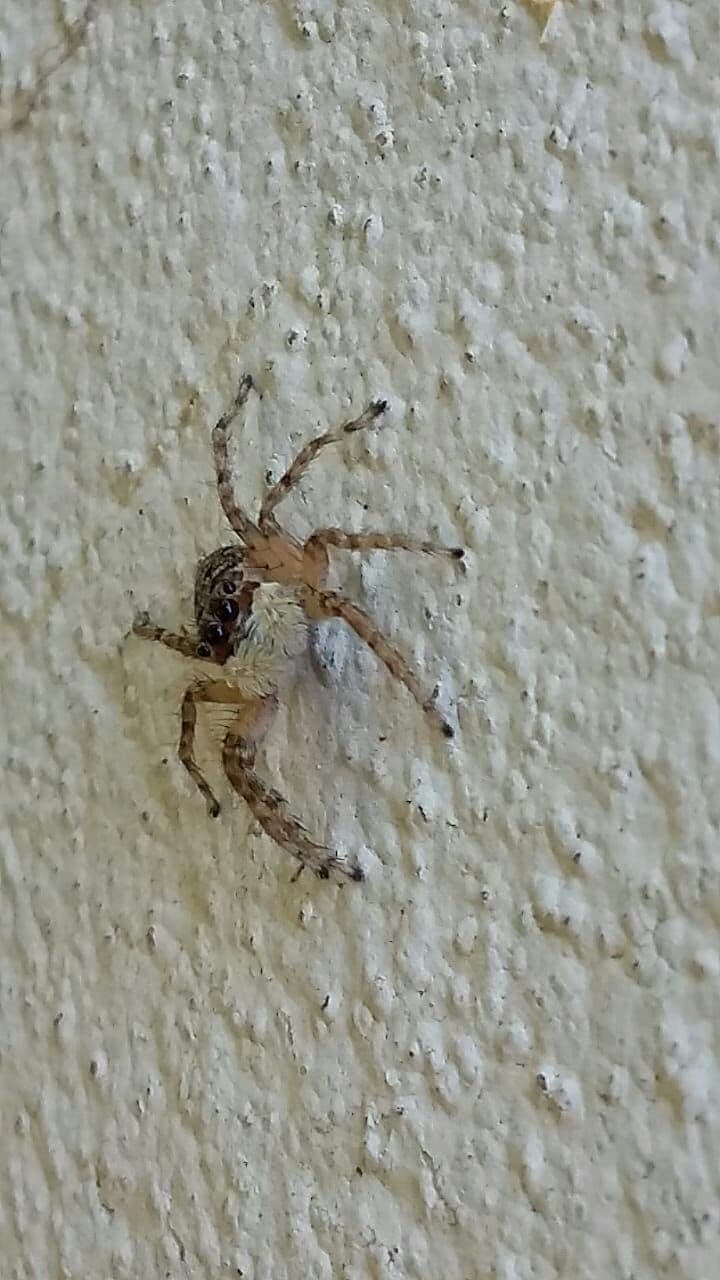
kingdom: Animalia
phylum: Arthropoda
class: Arachnida
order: Araneae
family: Salticidae
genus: Menemerus
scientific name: Menemerus semilimbatus
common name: Jumping spider
